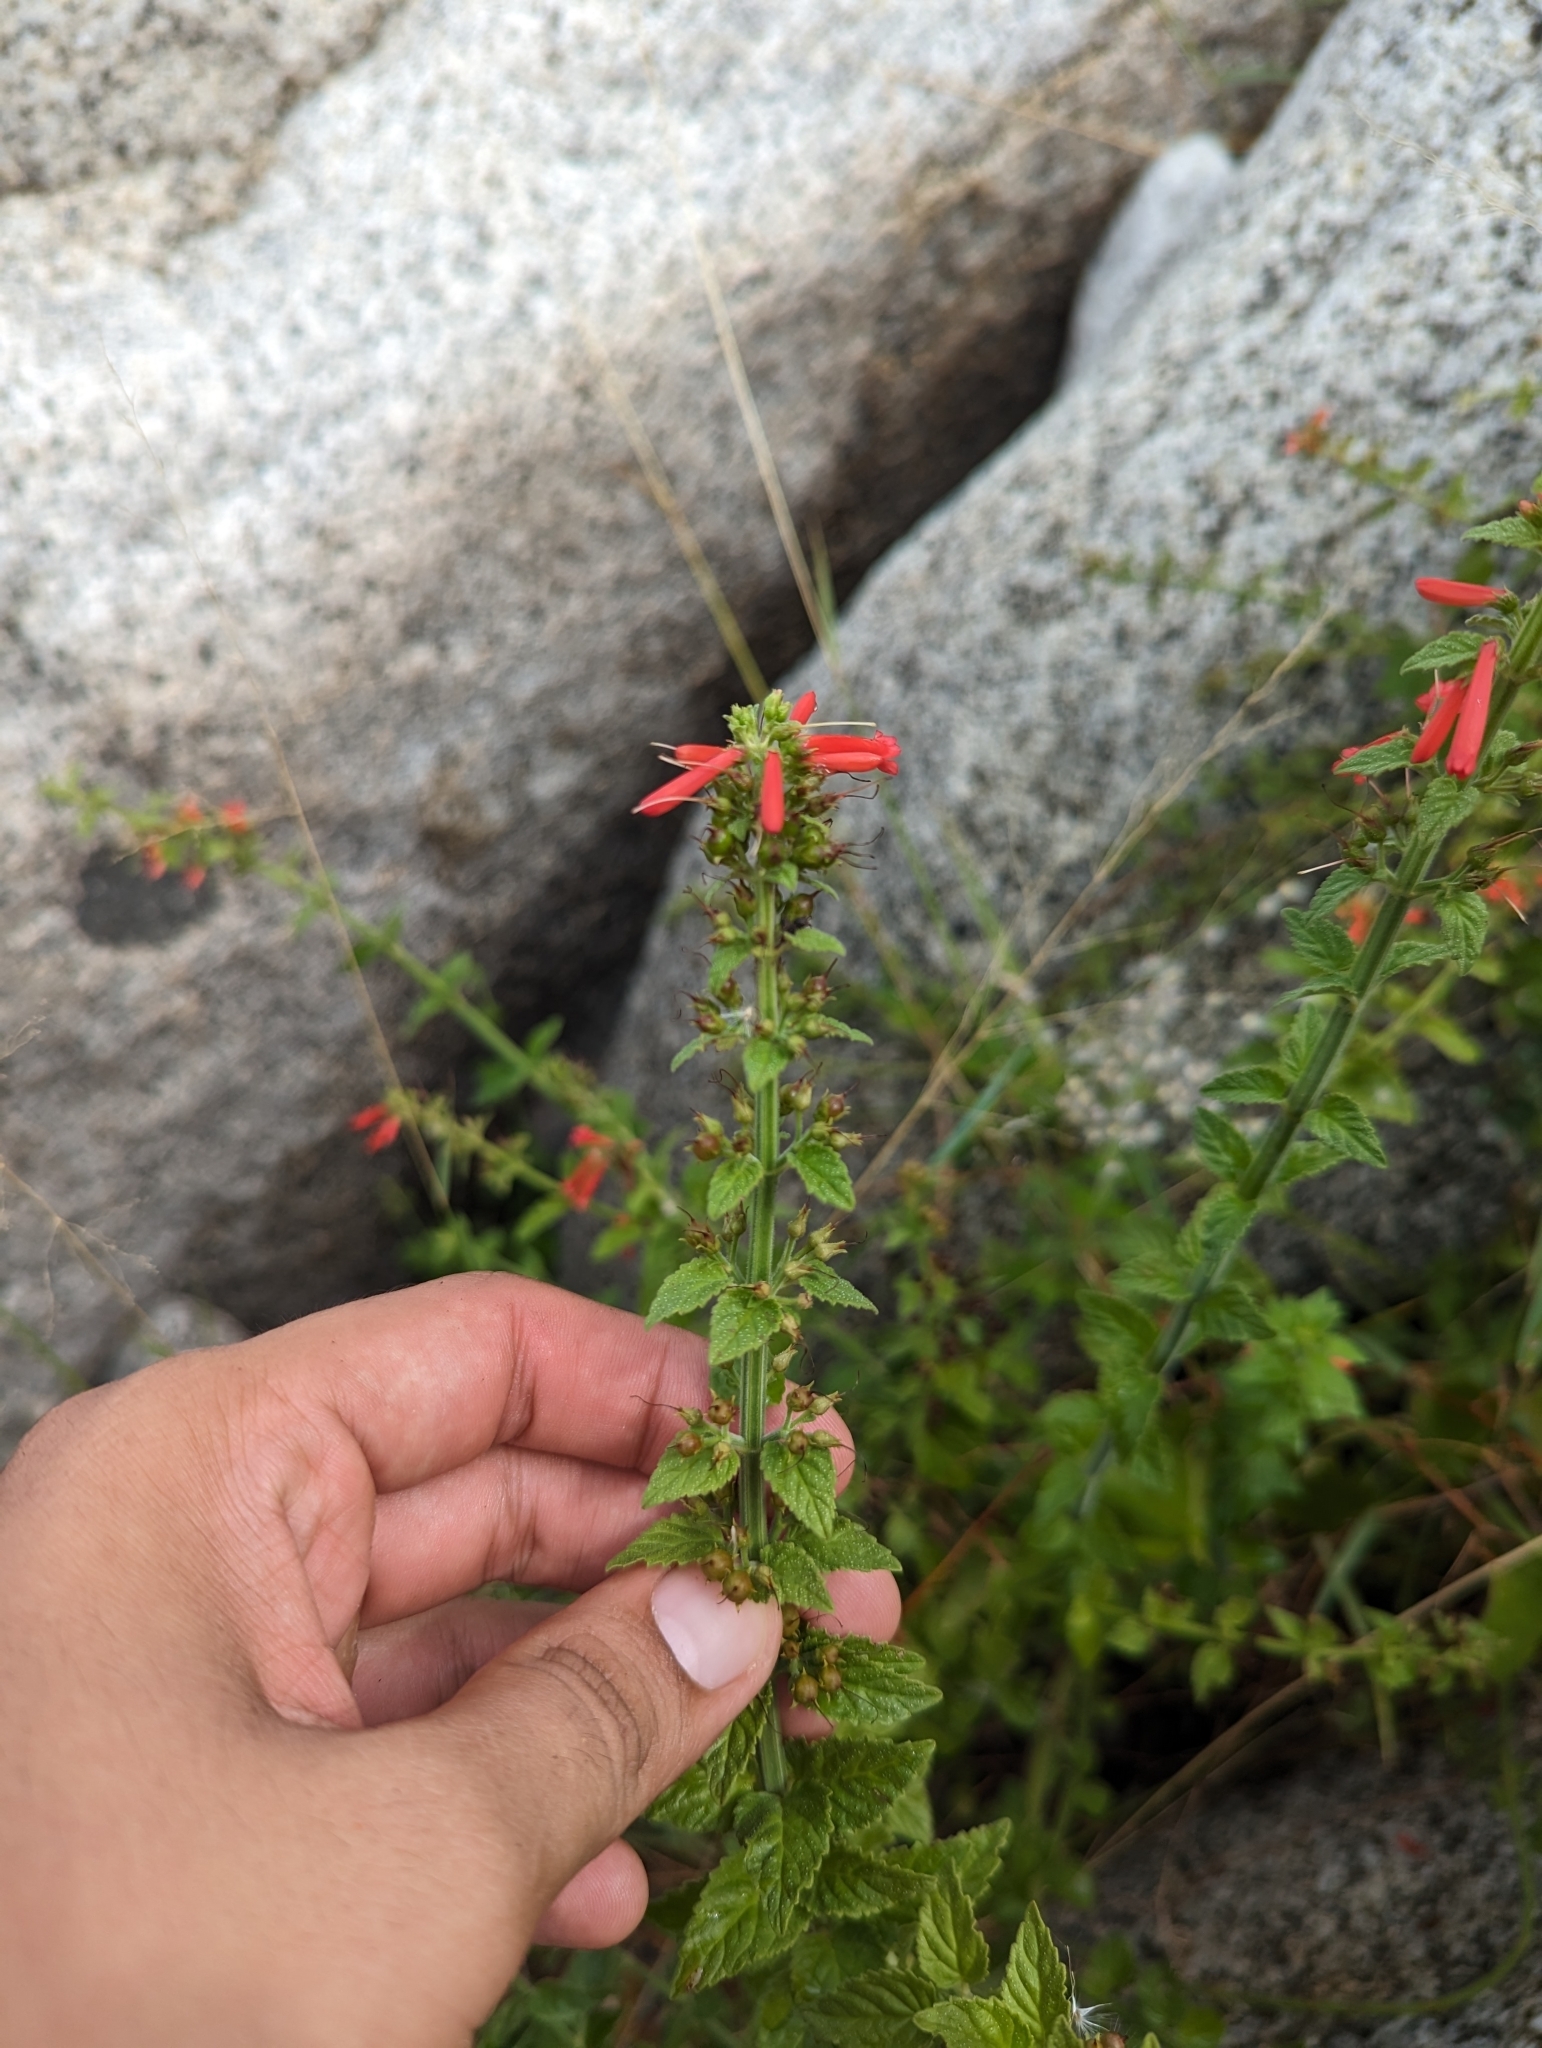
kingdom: Plantae
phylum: Tracheophyta
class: Magnoliopsida
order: Lamiales
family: Plantaginaceae
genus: Russelia
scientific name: Russelia retrorsa
